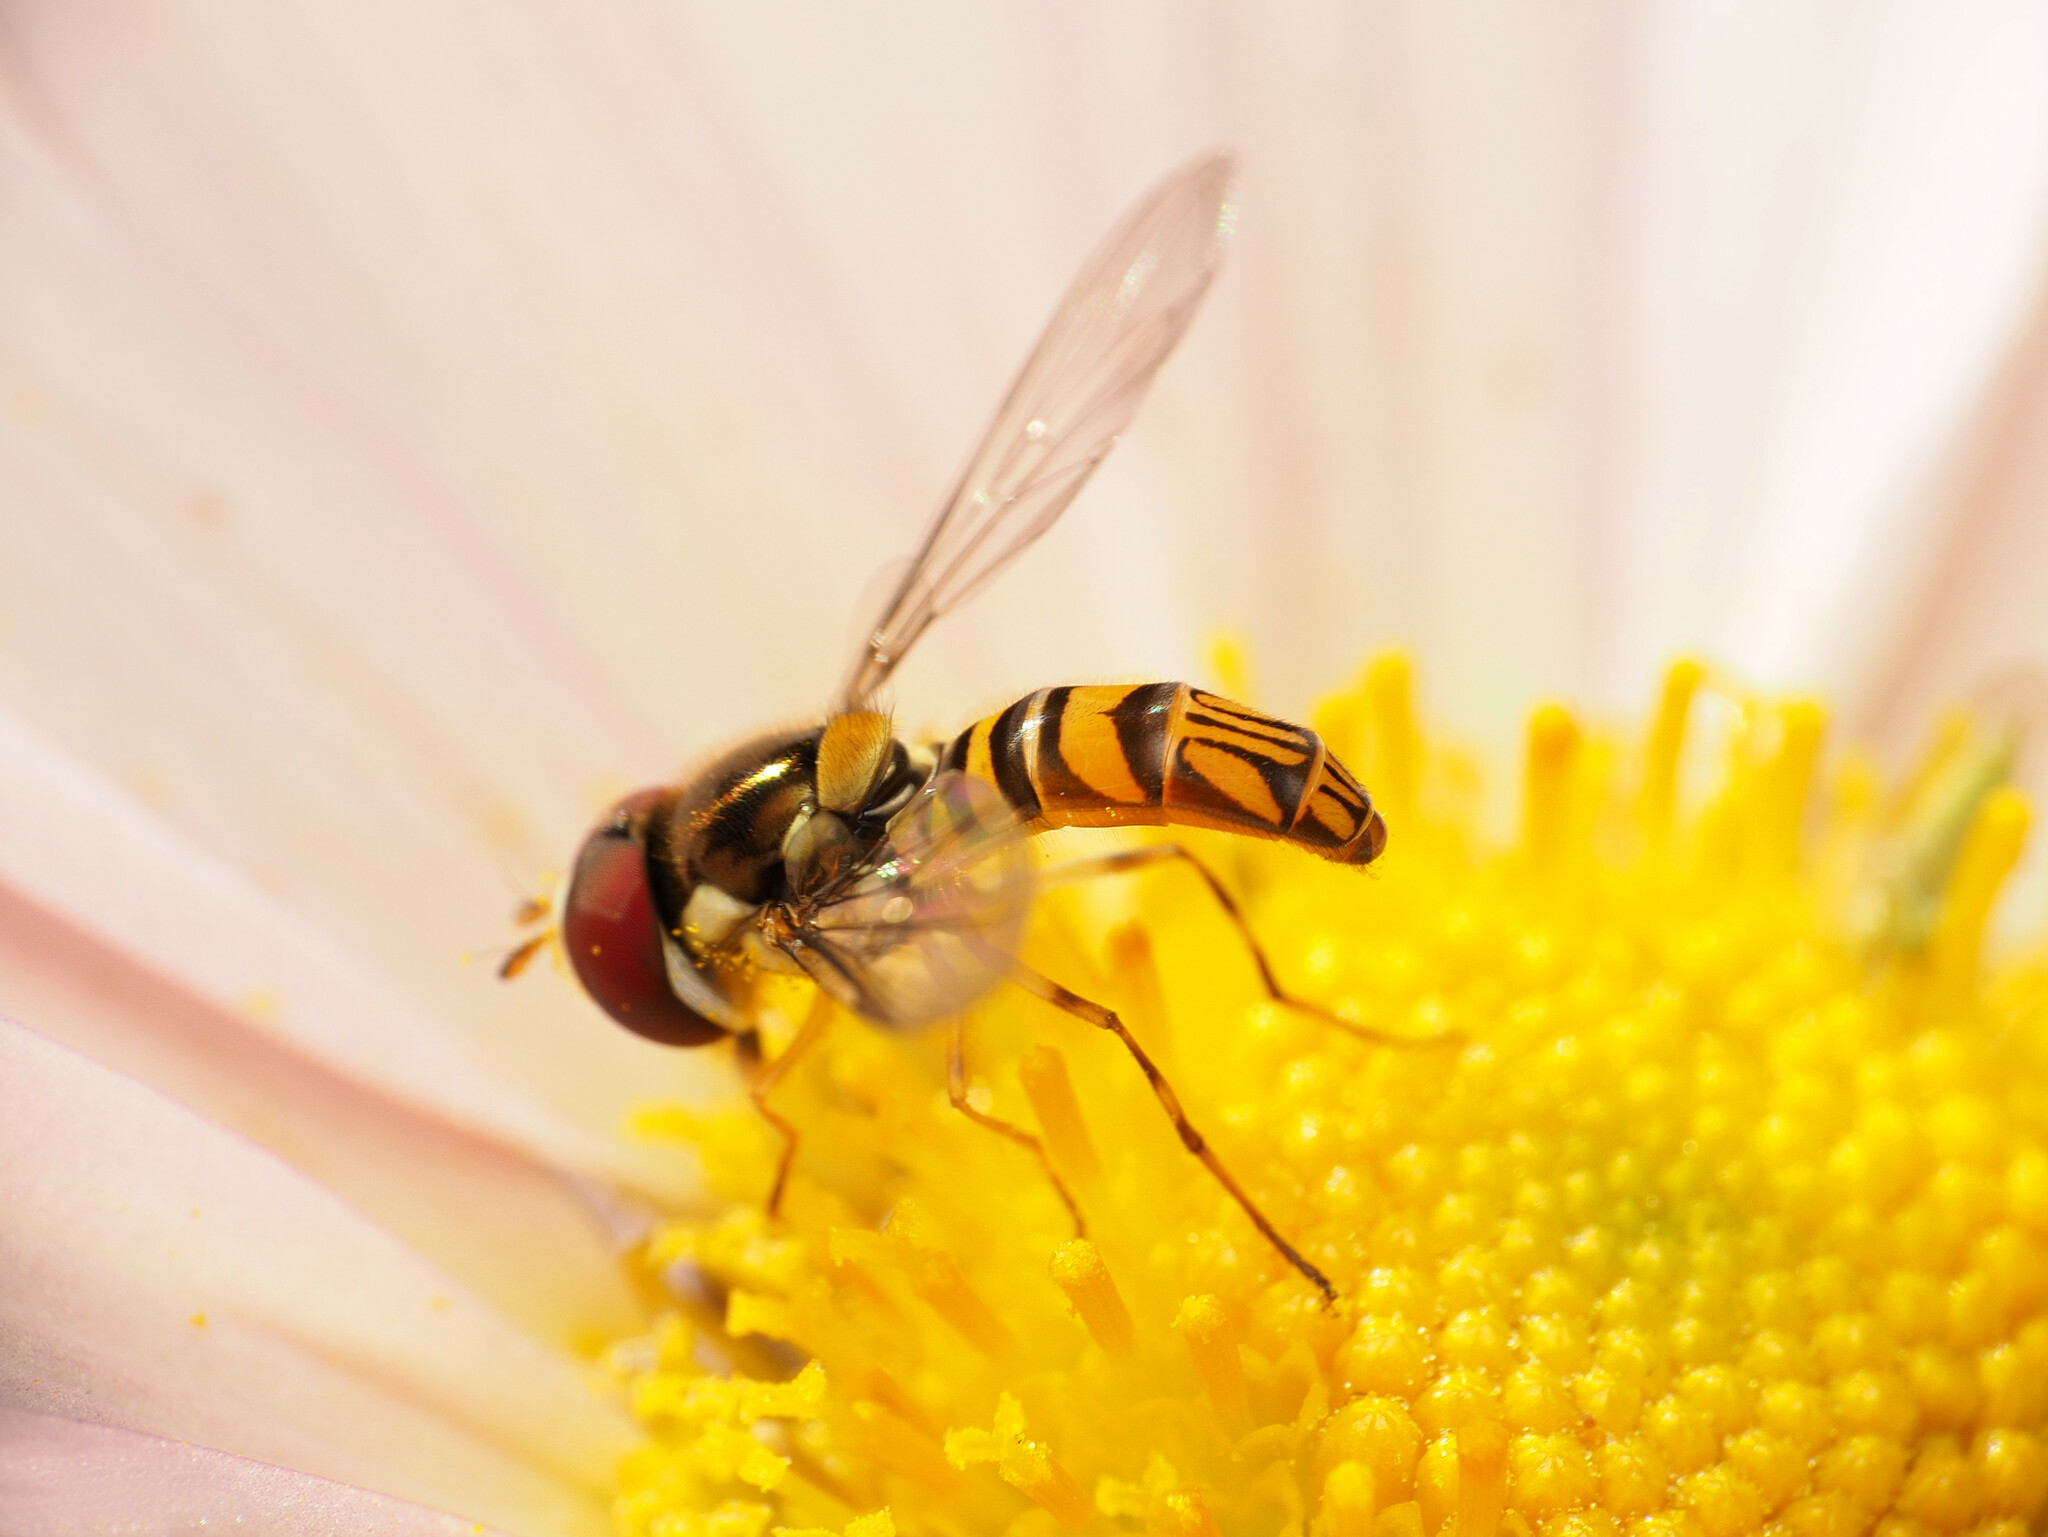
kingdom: Animalia
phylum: Arthropoda
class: Insecta
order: Diptera
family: Syrphidae
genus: Allograpta
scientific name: Allograpta obliqua
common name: Common oblique syrphid
